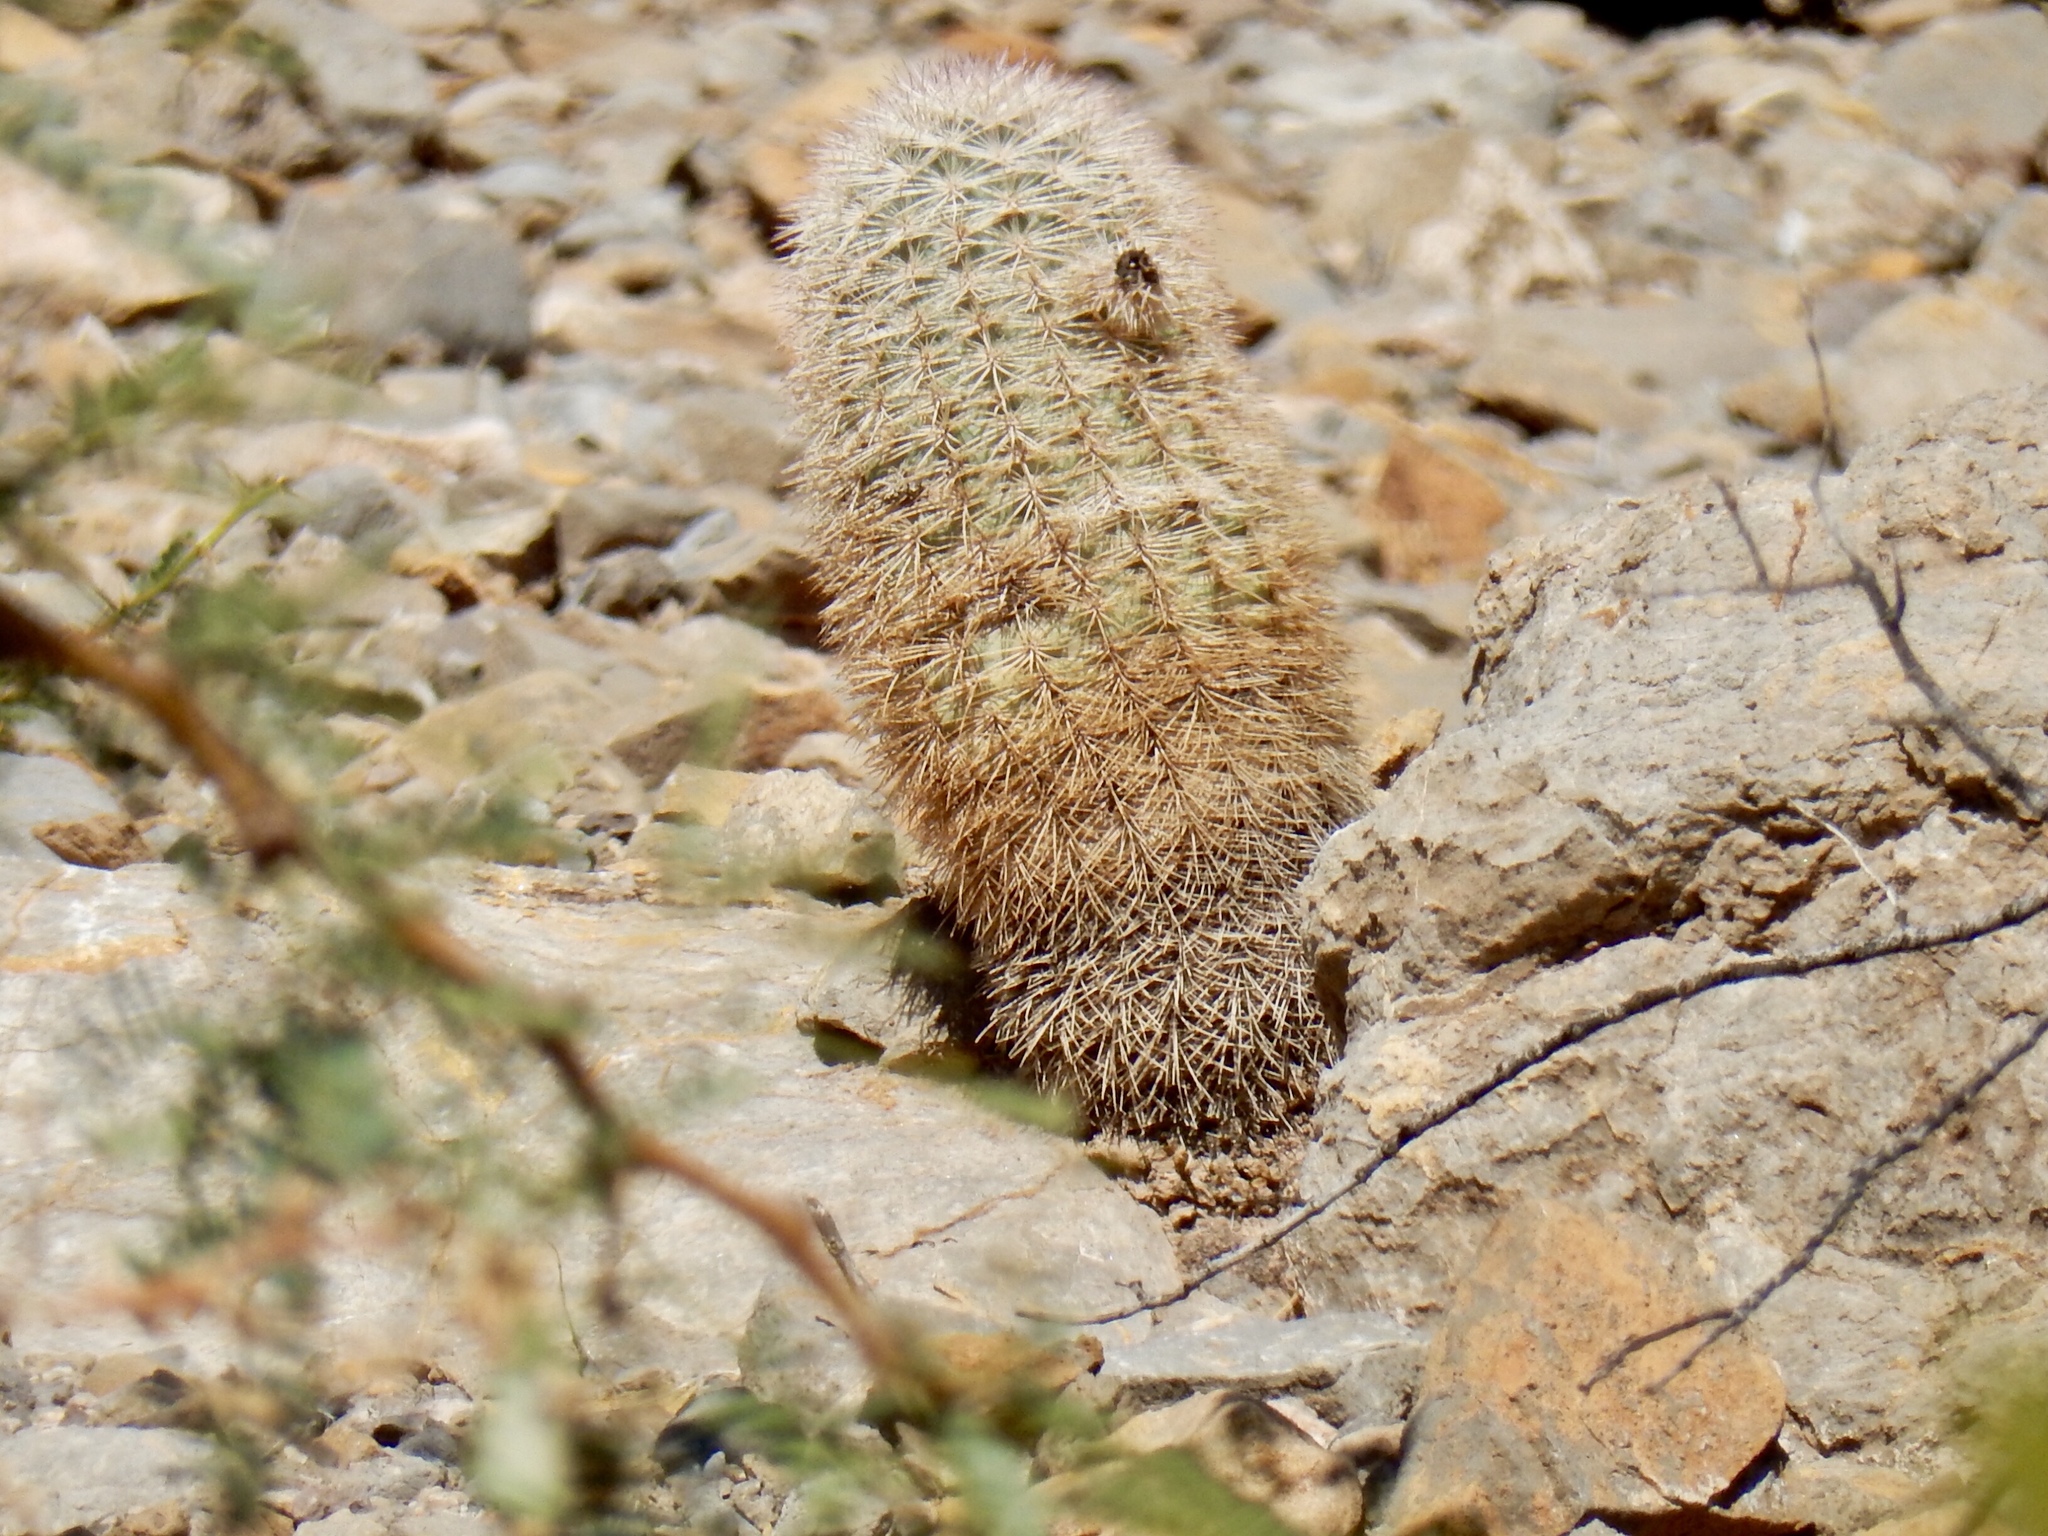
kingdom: Plantae
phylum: Tracheophyta
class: Magnoliopsida
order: Caryophyllales
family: Cactaceae
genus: Echinocereus
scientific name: Echinocereus dasyacanthus
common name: Spiny hedgehog cactus
